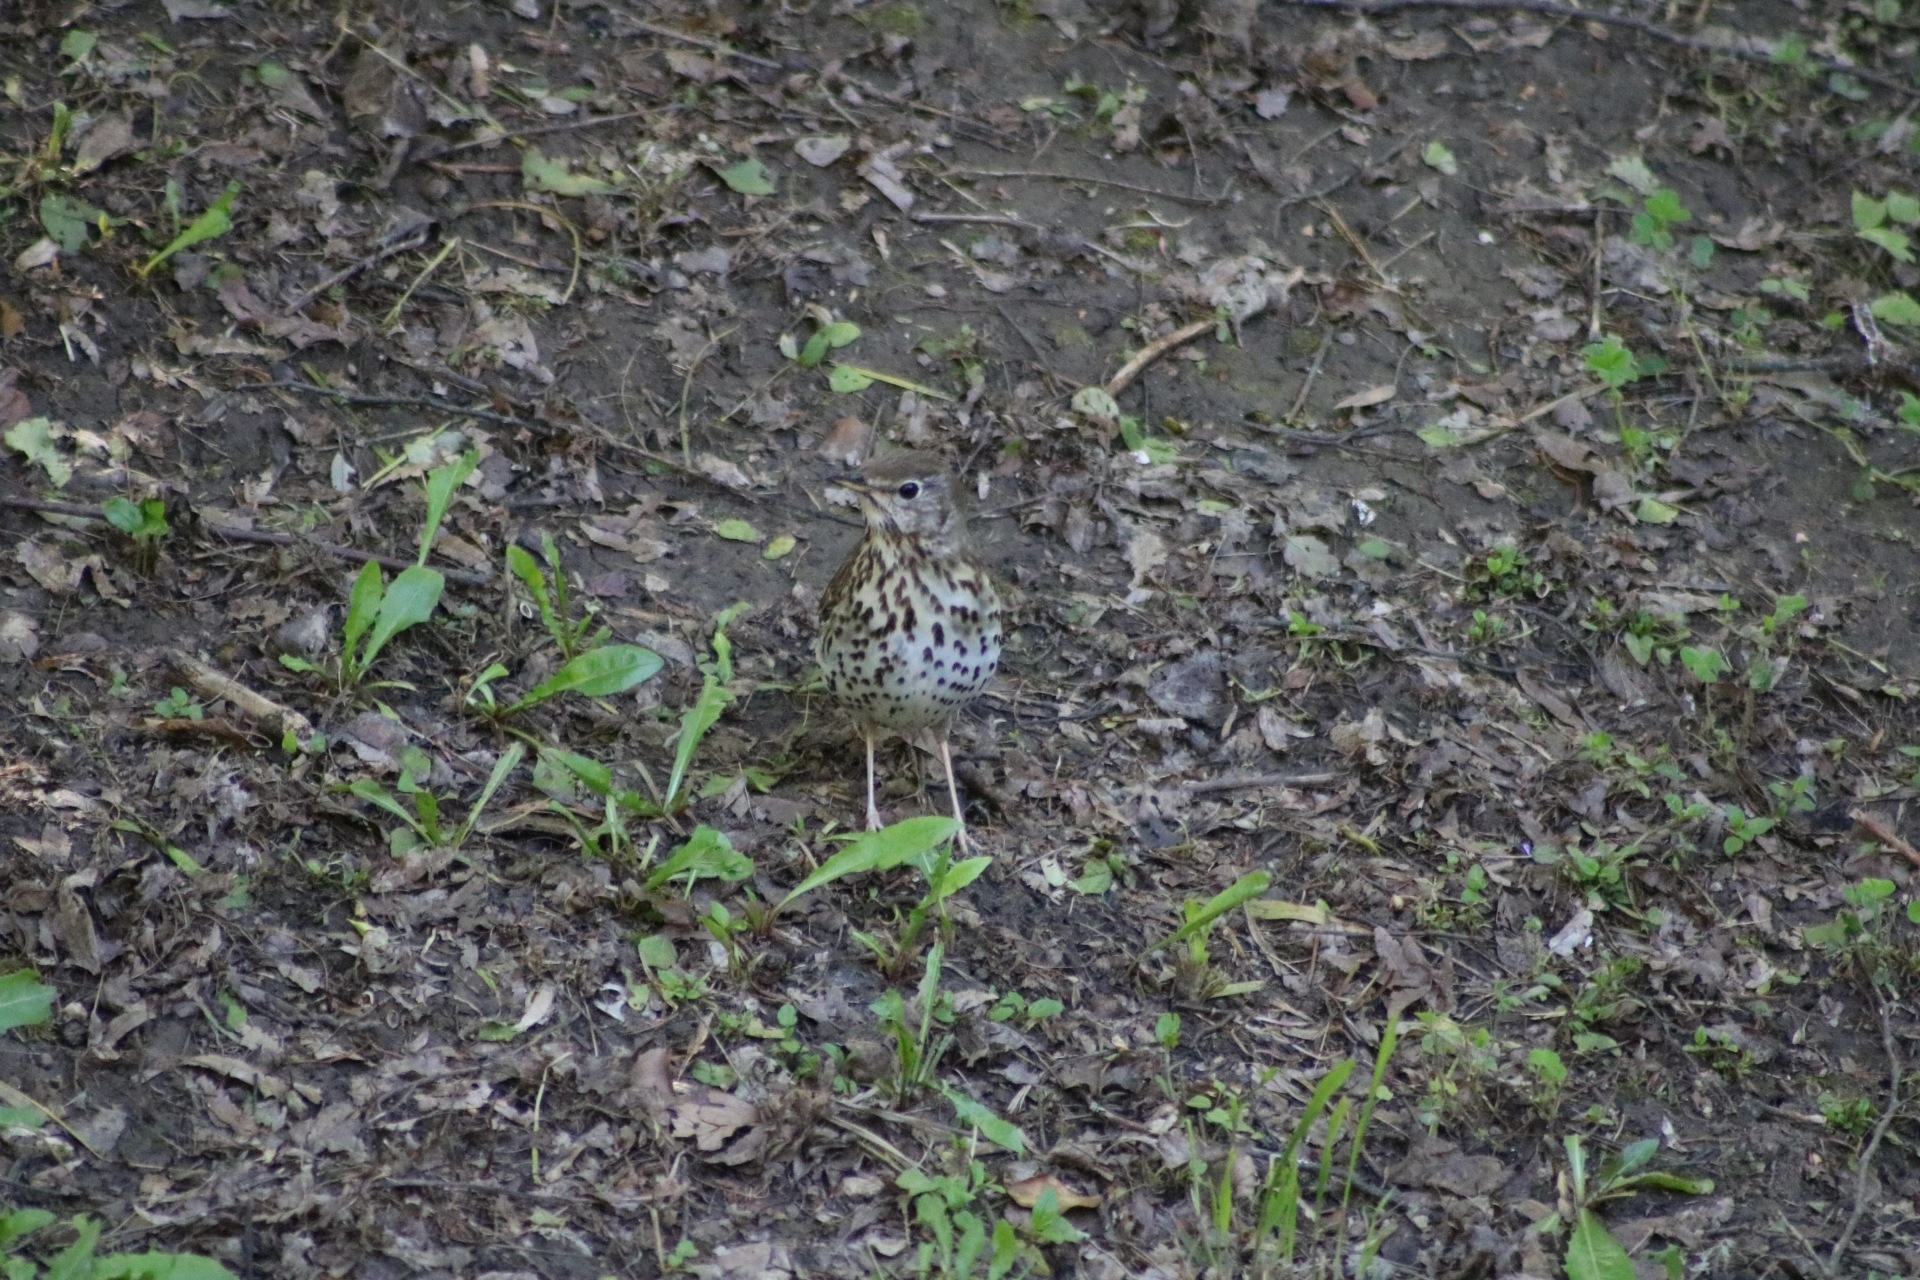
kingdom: Animalia
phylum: Chordata
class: Aves
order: Passeriformes
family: Turdidae
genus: Turdus
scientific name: Turdus philomelos
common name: Song thrush
